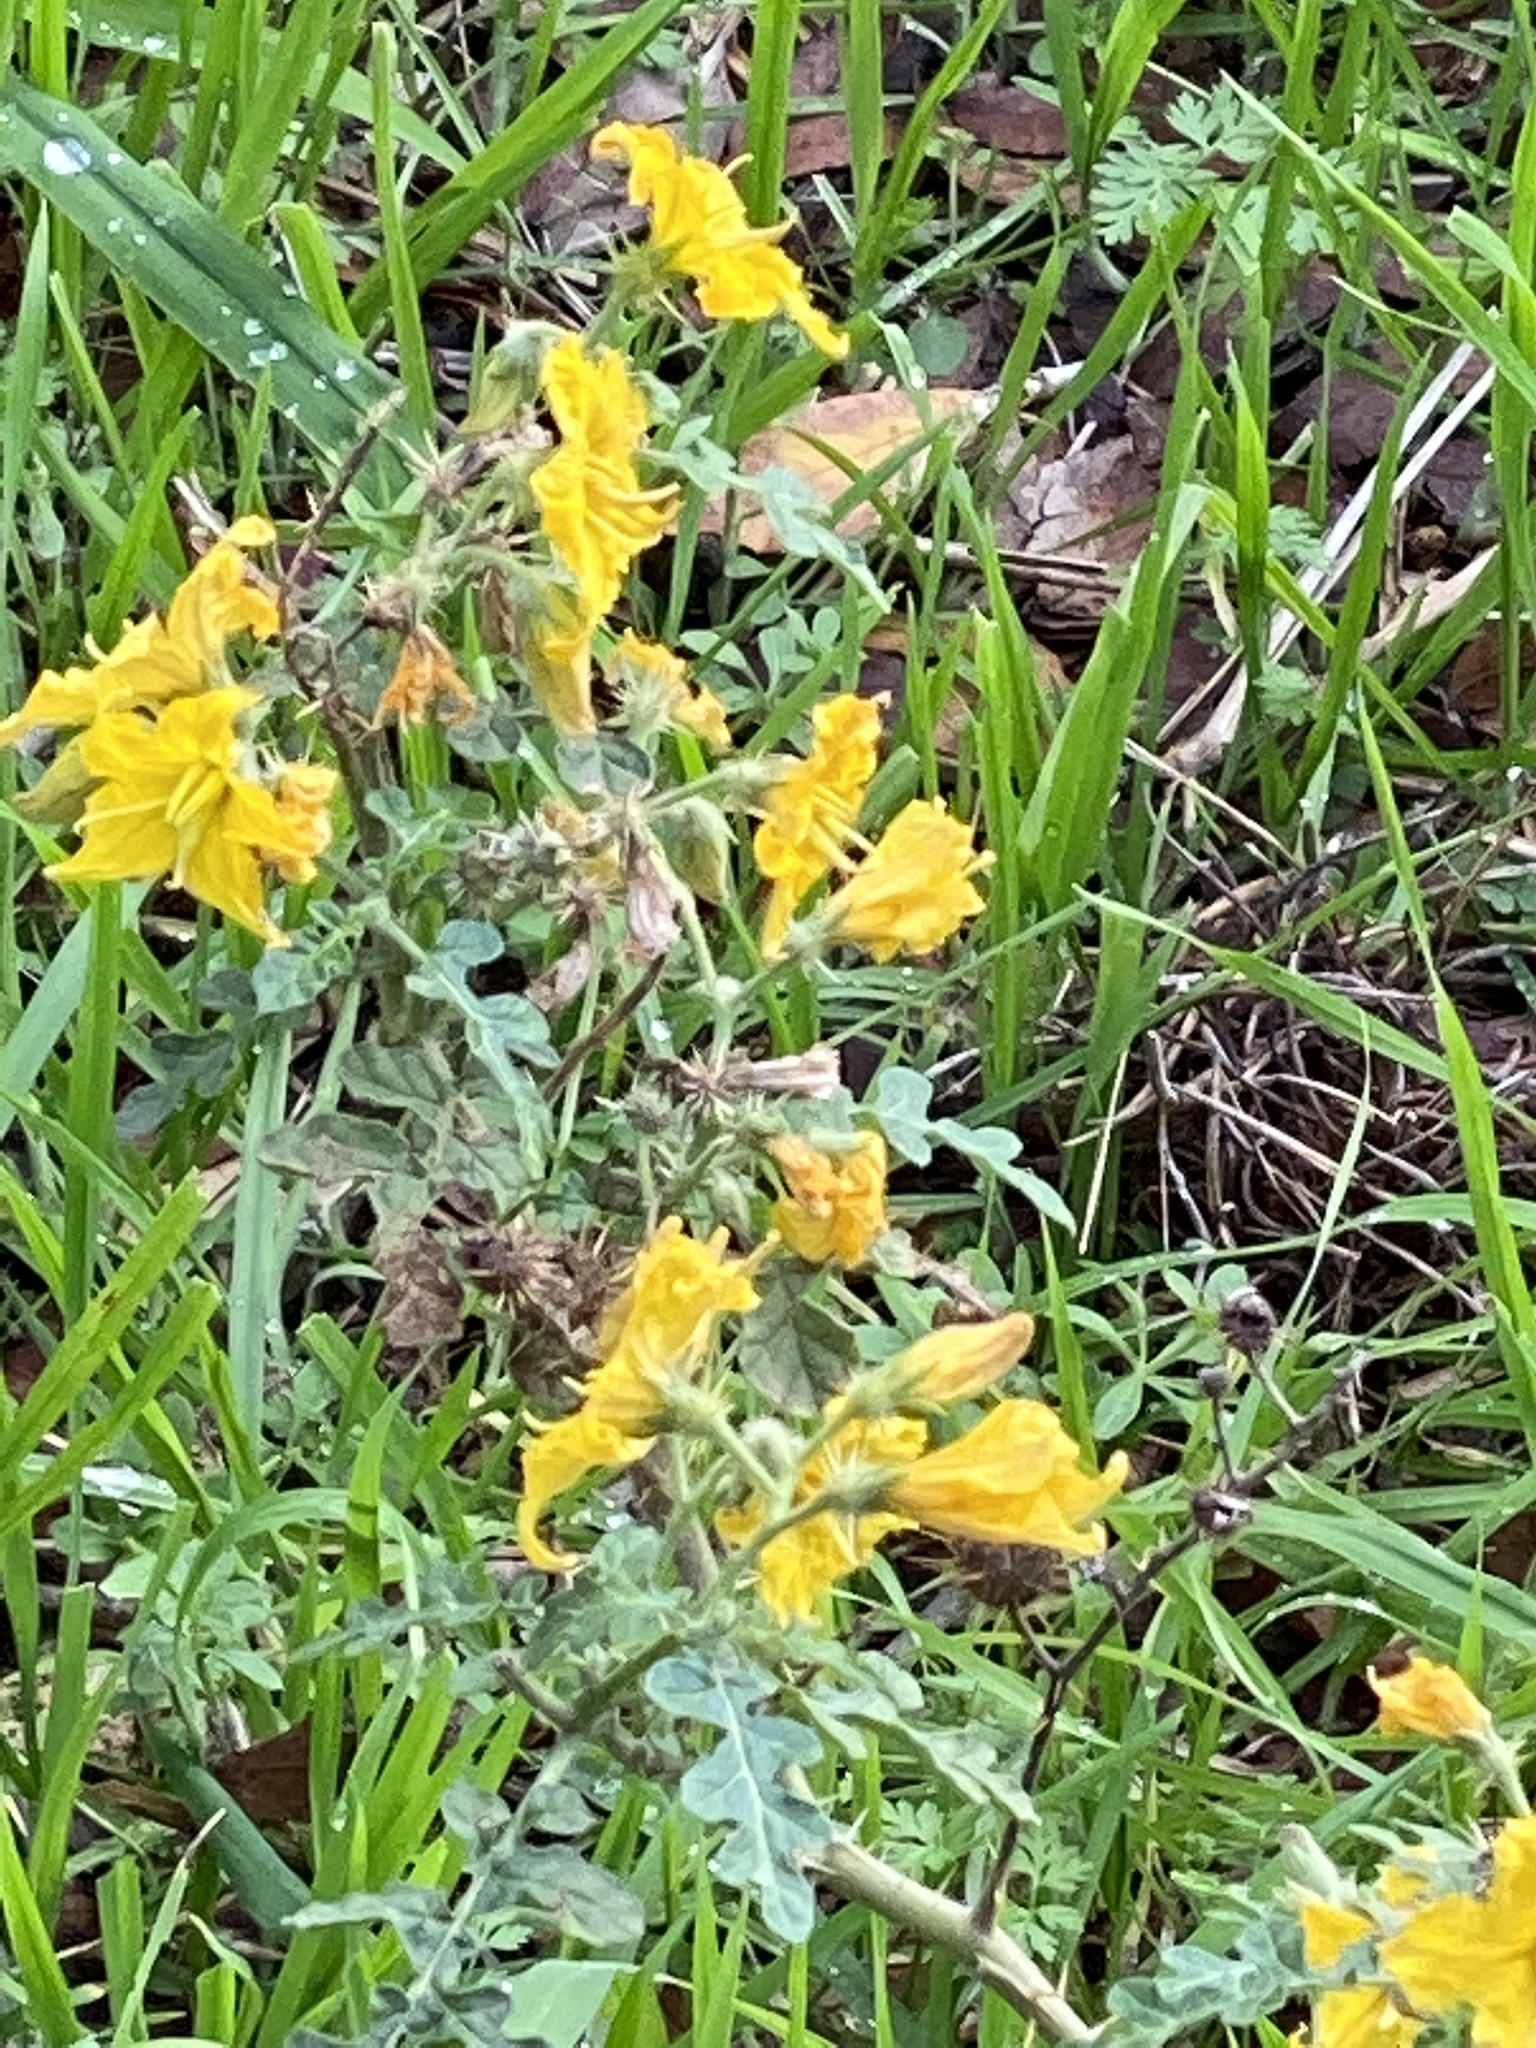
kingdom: Plantae
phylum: Tracheophyta
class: Magnoliopsida
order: Solanales
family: Solanaceae
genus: Solanum
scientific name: Solanum angustifolium
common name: Buffalobur nightshade
